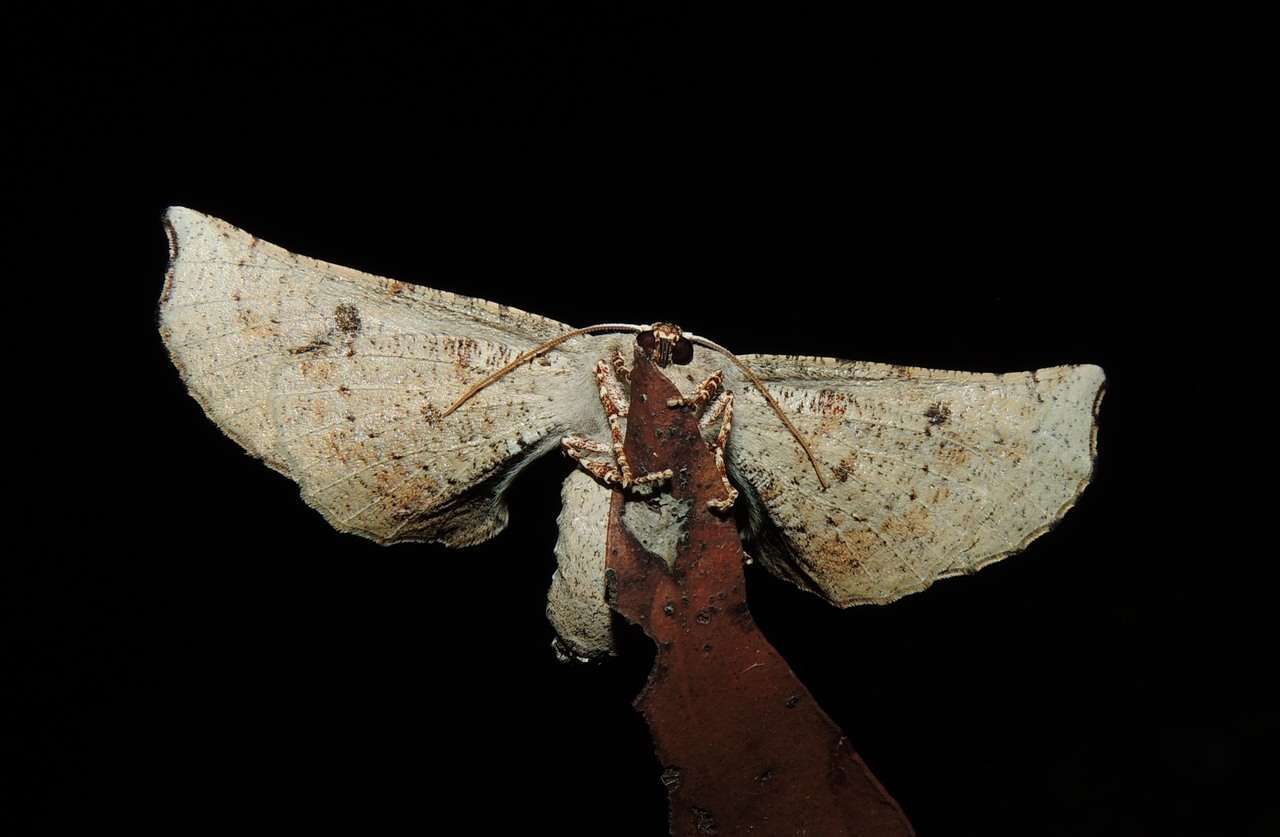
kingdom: Animalia
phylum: Arthropoda
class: Insecta
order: Lepidoptera
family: Geometridae
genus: Circopetes
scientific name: Circopetes obtusata
